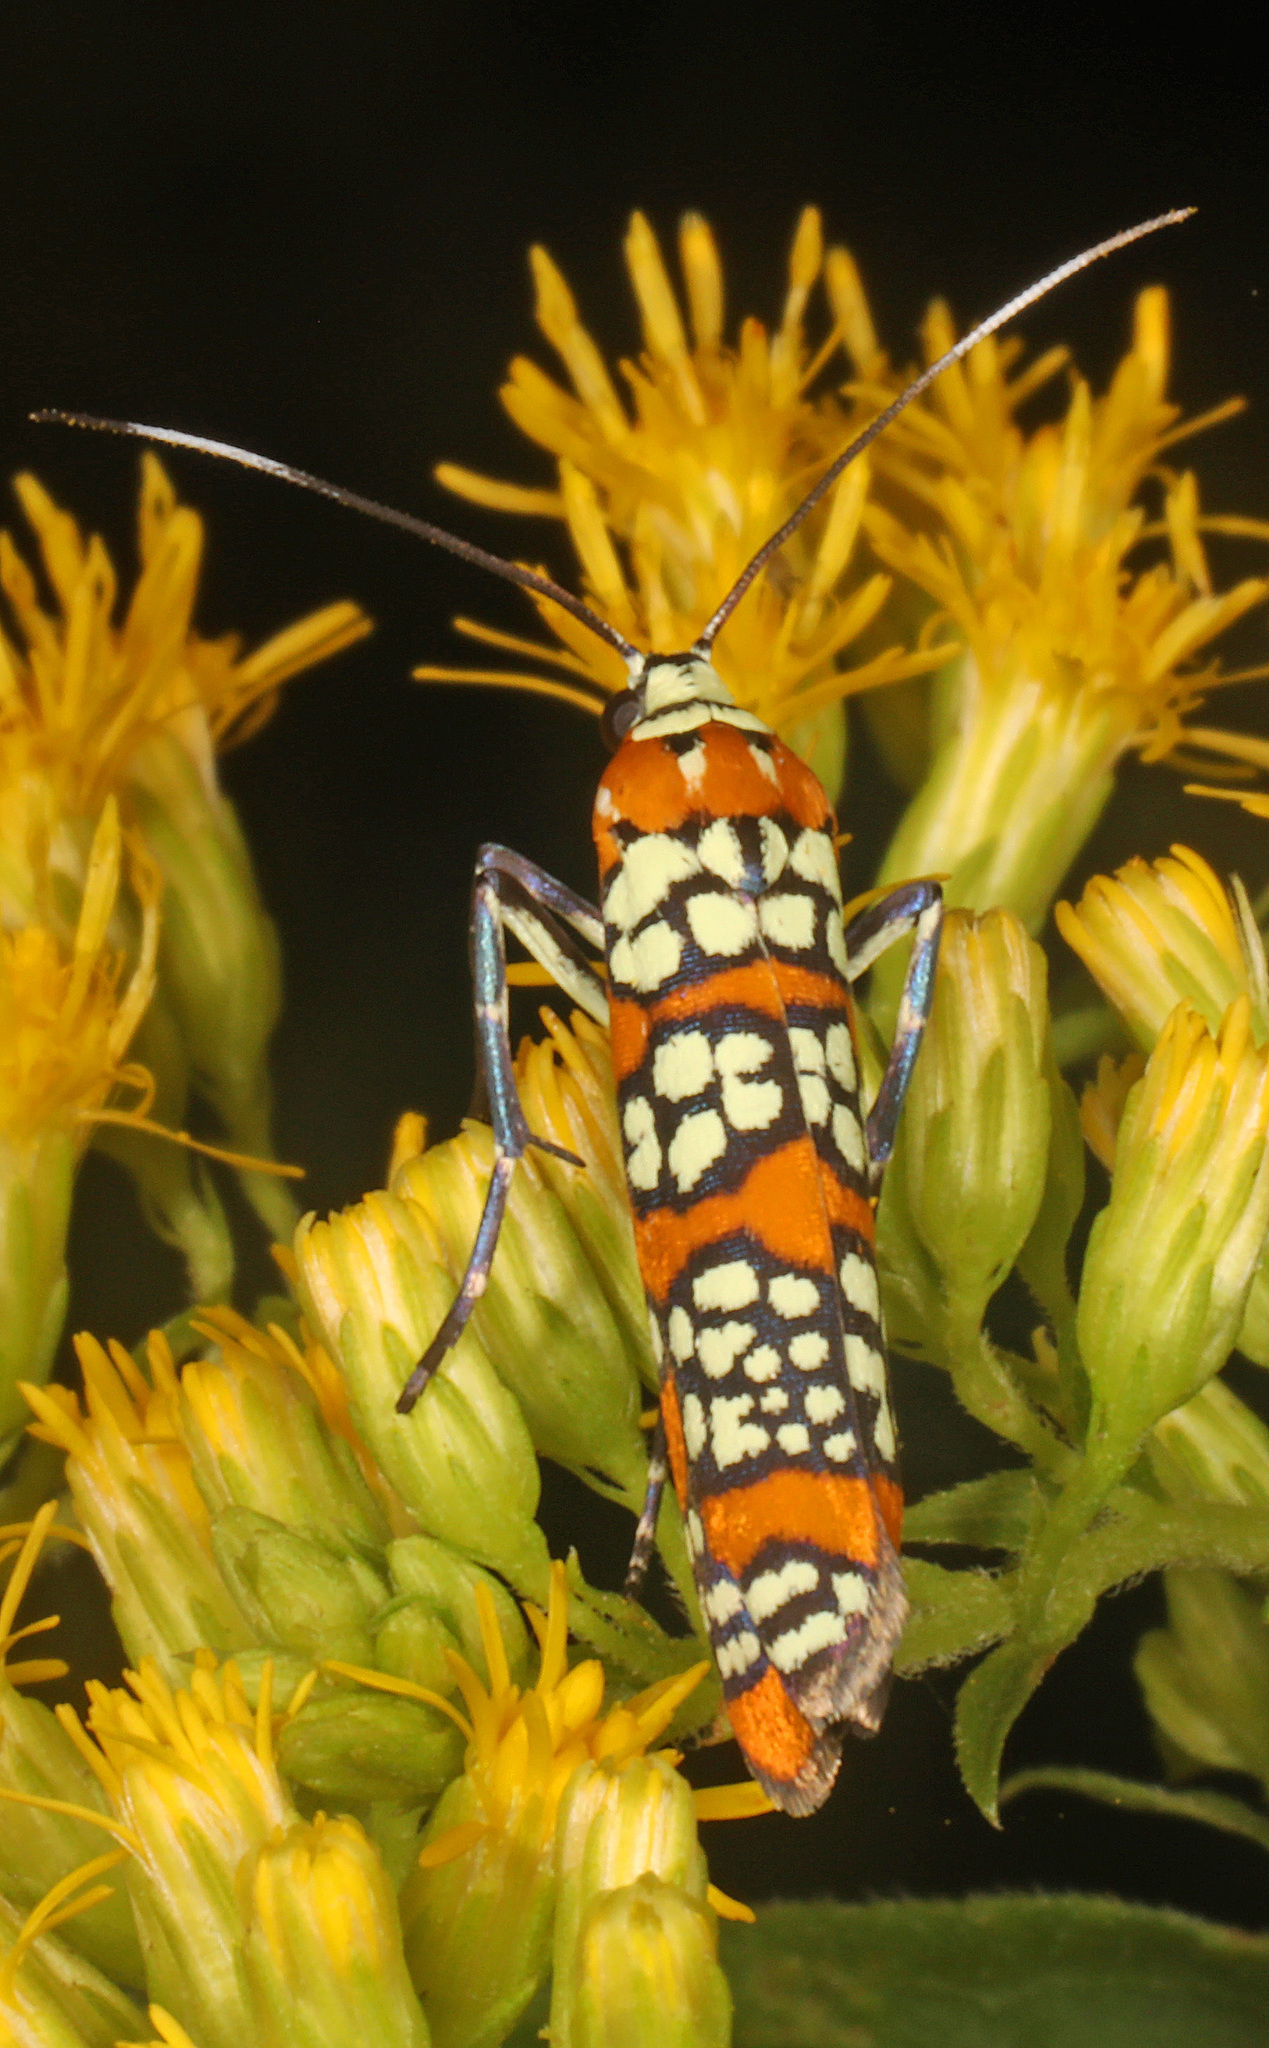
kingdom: Animalia
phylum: Arthropoda
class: Insecta
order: Lepidoptera
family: Attevidae
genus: Atteva
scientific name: Atteva punctella
